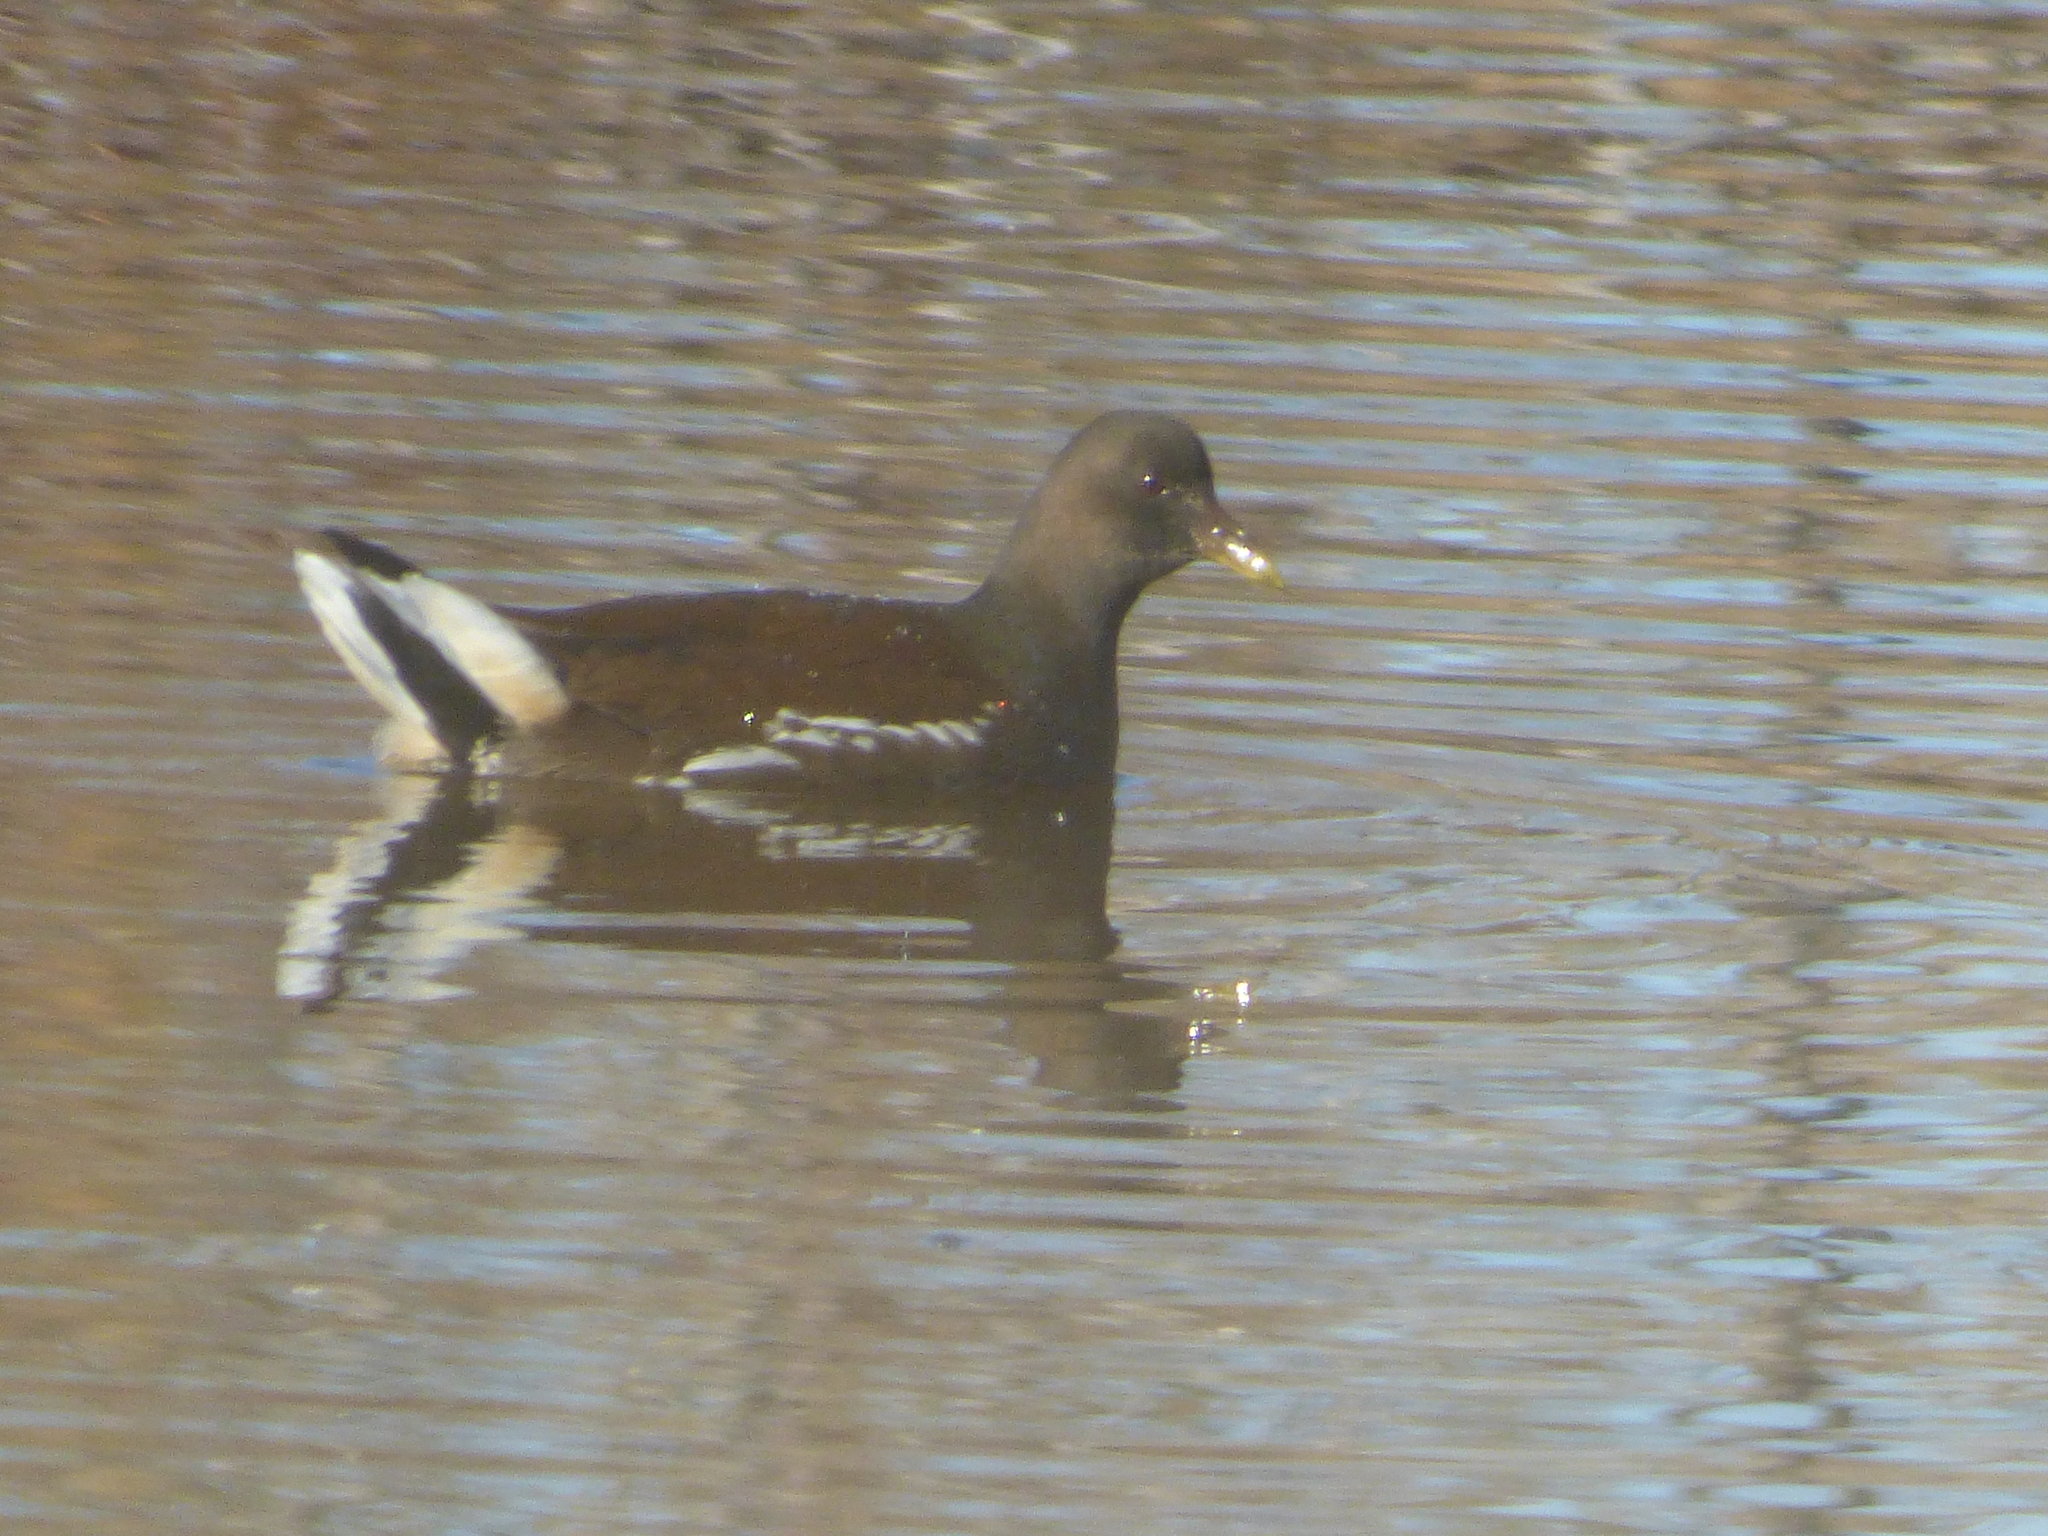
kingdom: Animalia
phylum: Chordata
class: Aves
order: Gruiformes
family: Rallidae
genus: Gallinula
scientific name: Gallinula chloropus
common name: Common moorhen
